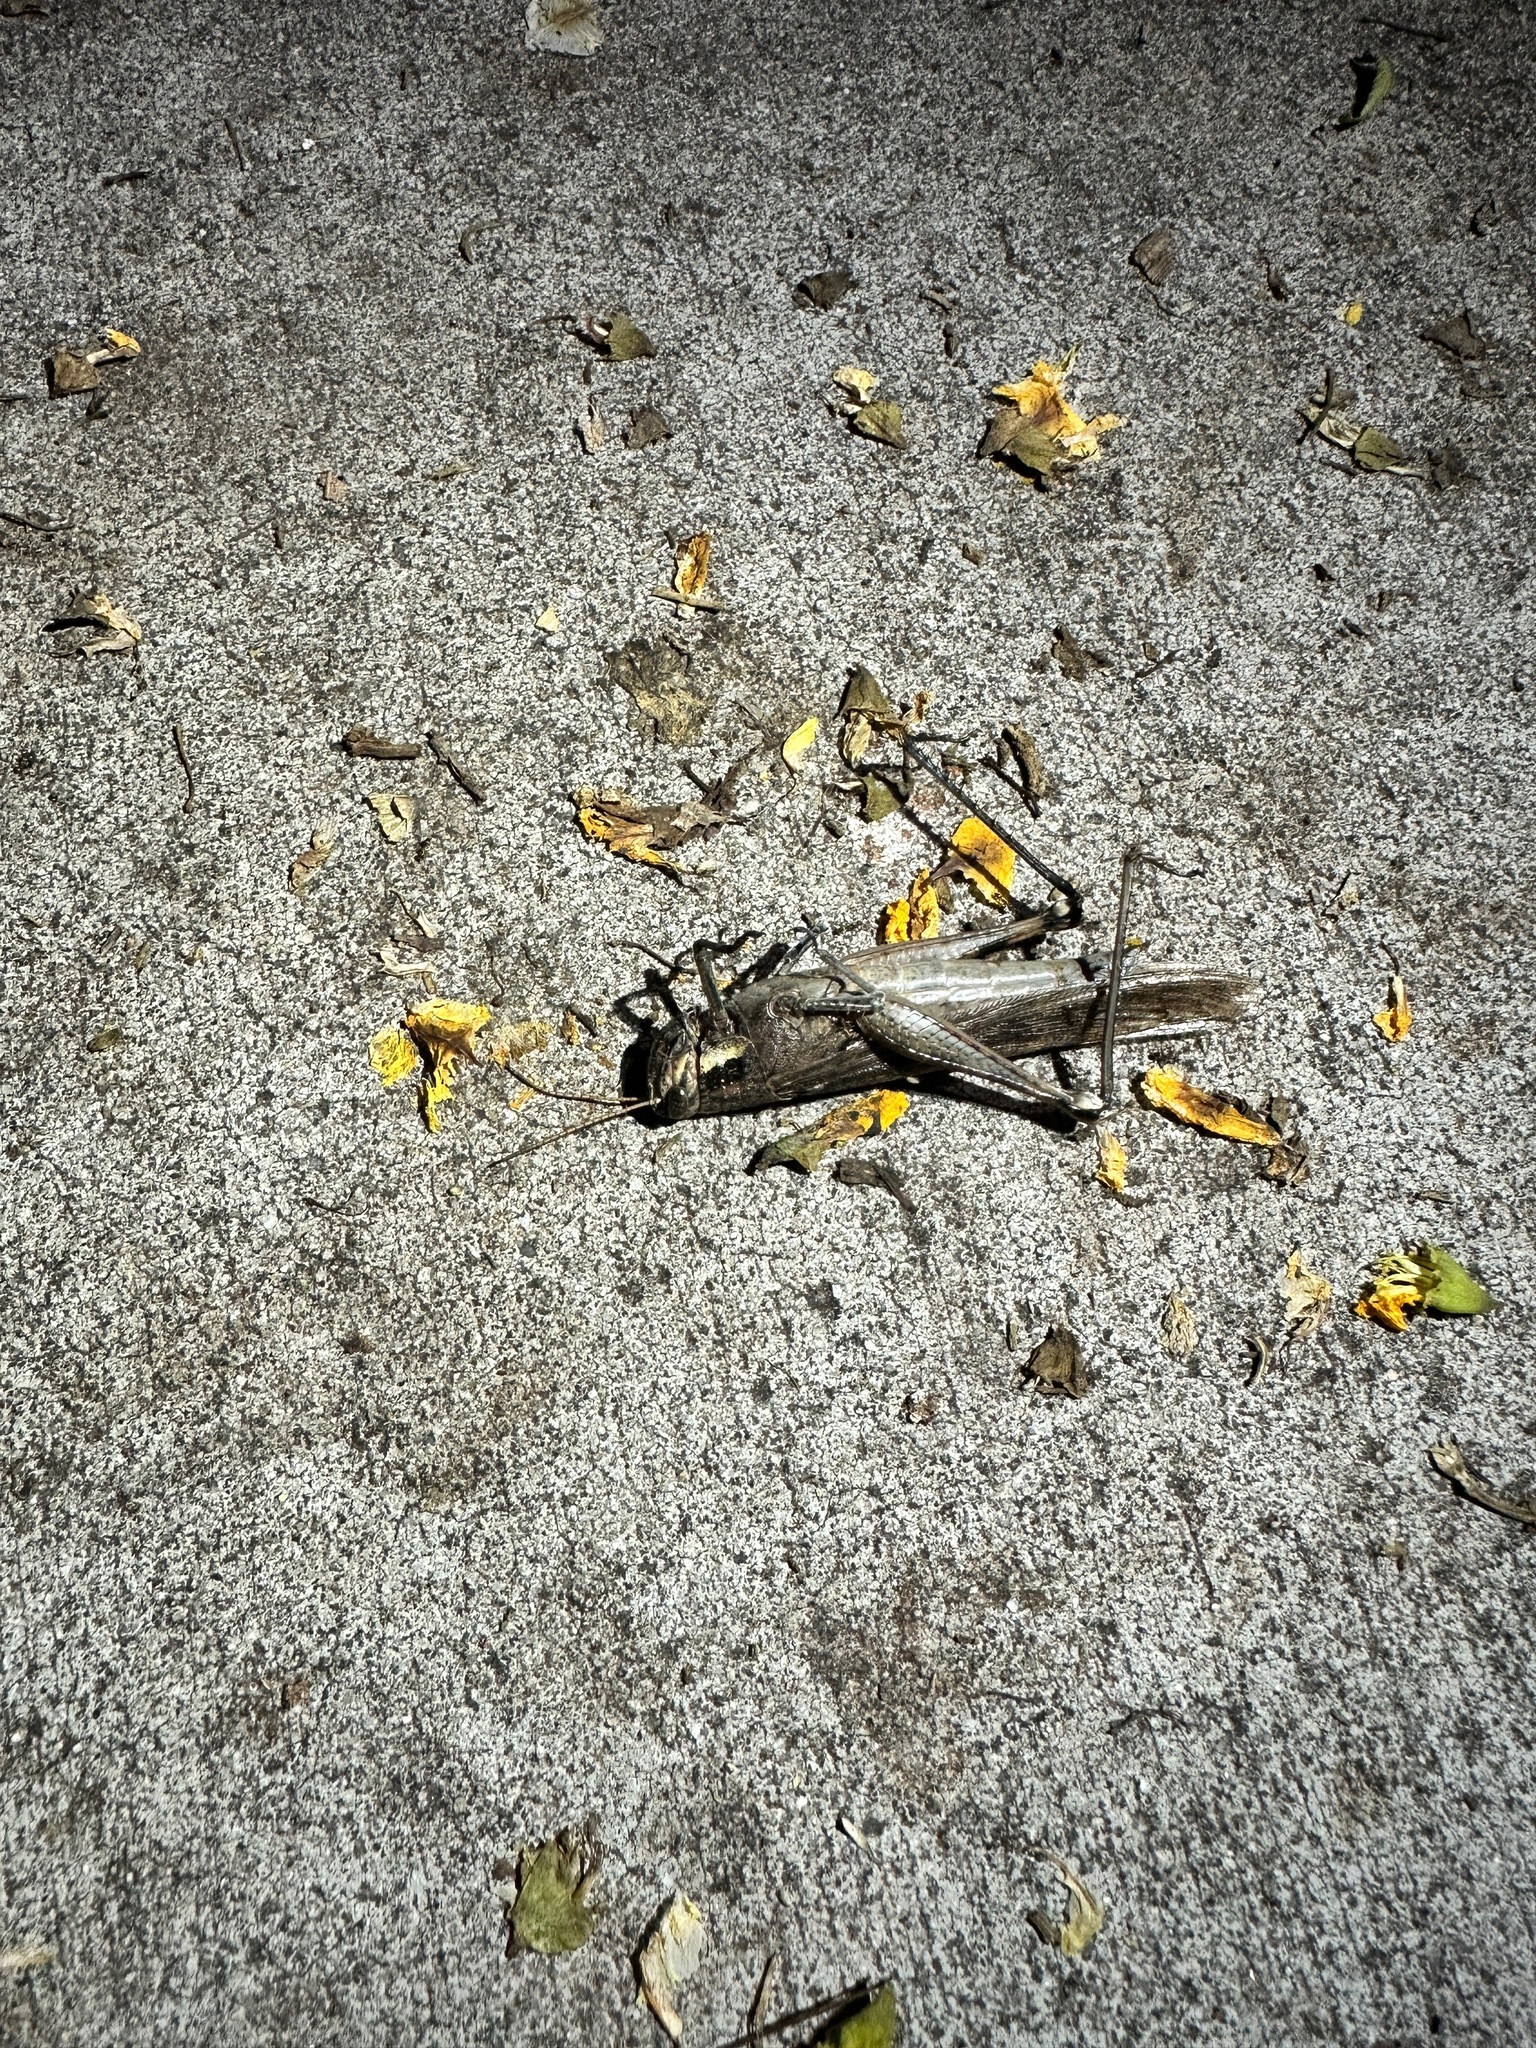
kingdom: Animalia
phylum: Arthropoda
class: Insecta
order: Orthoptera
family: Acrididae
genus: Schistocerca
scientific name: Schistocerca nitens
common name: Vagrant grasshopper
